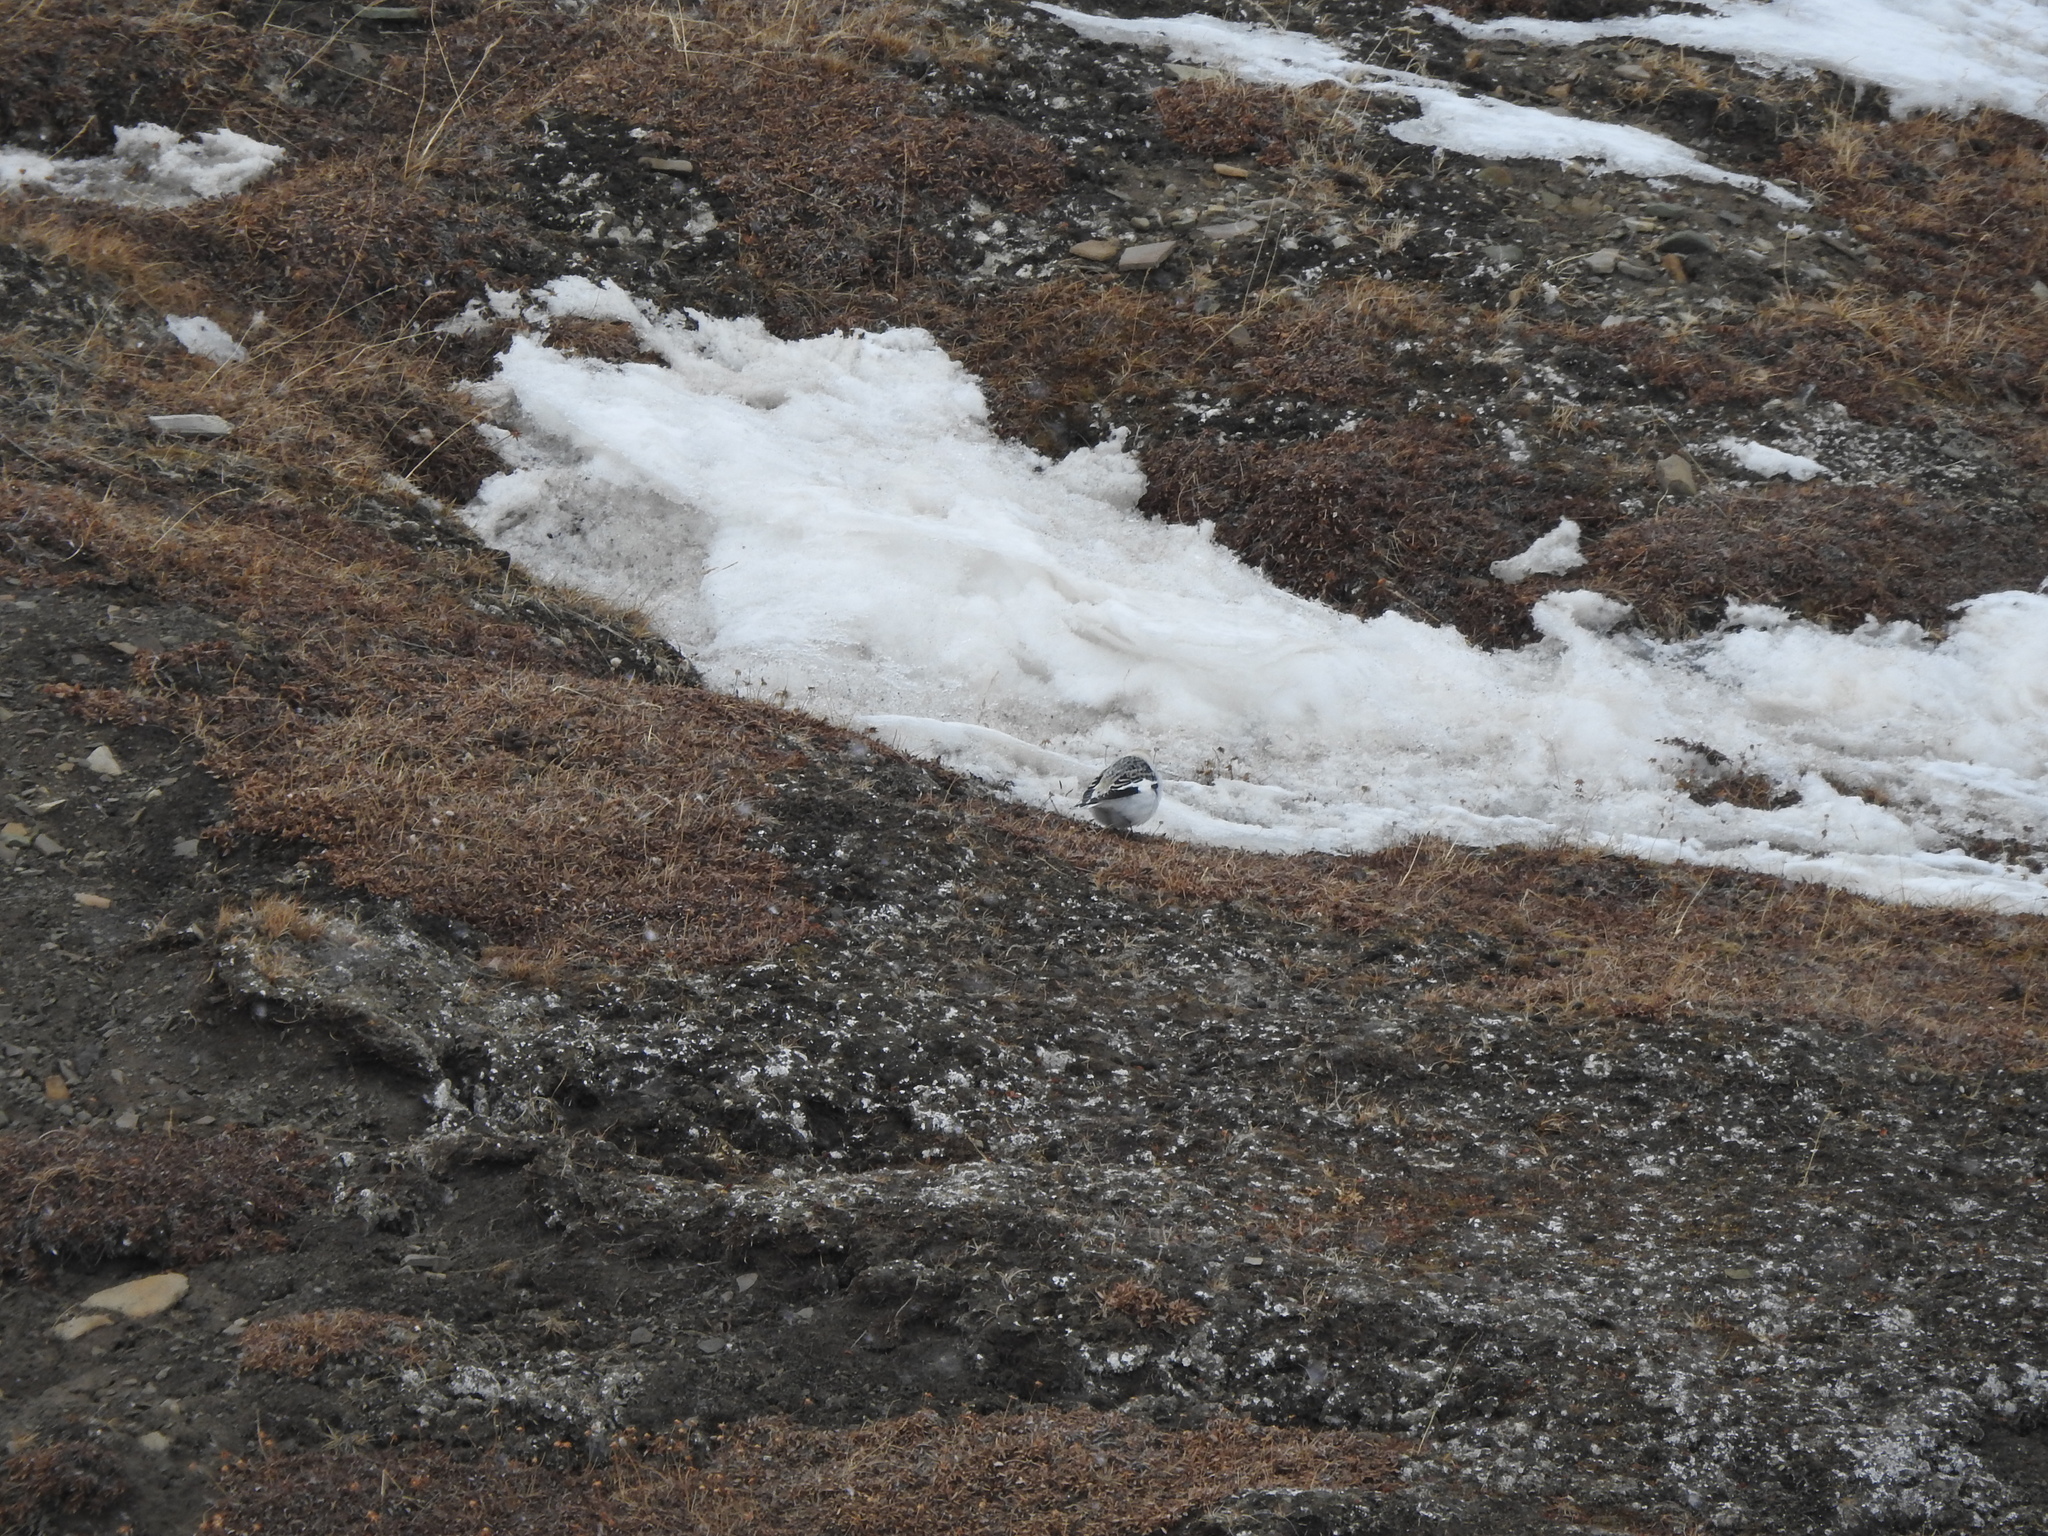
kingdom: Animalia
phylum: Chordata
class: Aves
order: Passeriformes
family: Calcariidae
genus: Plectrophenax
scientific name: Plectrophenax nivalis
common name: Snow bunting
